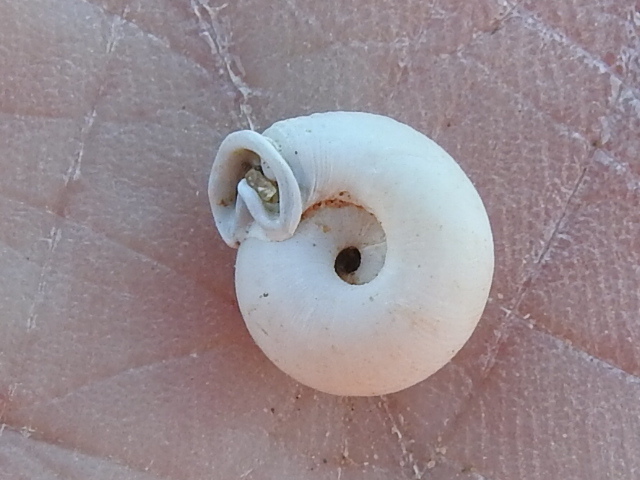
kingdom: Animalia
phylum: Mollusca
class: Gastropoda
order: Stylommatophora
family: Polygyridae
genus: Linisa
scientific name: Linisa texasiana
